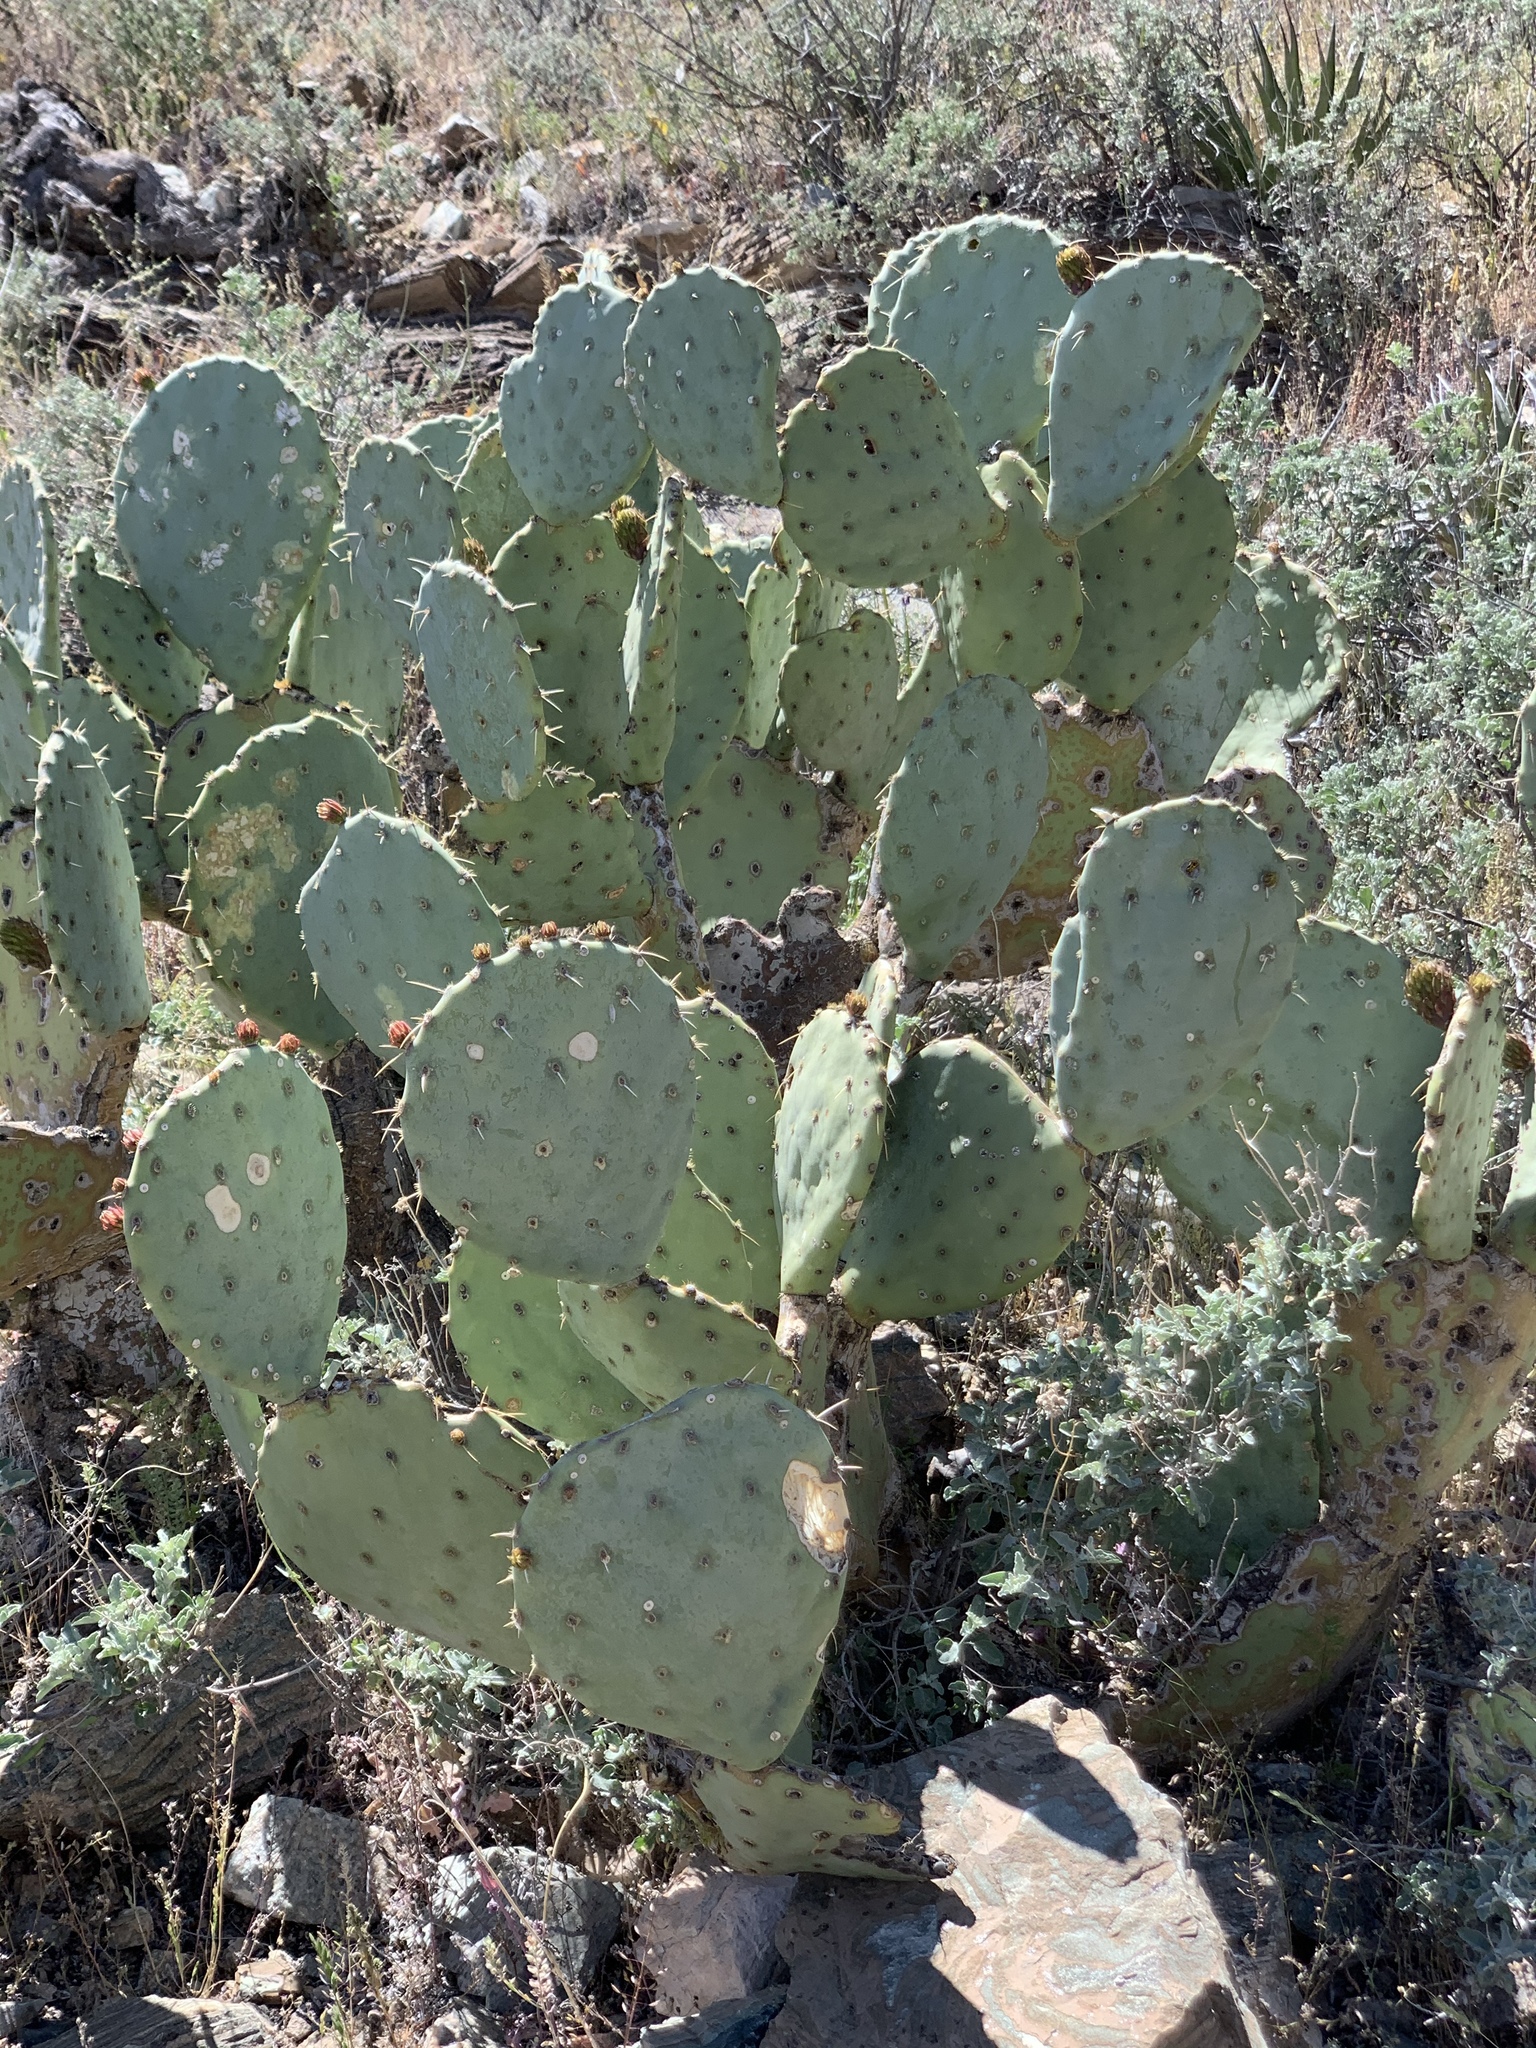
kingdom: Plantae
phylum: Tracheophyta
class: Magnoliopsida
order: Caryophyllales
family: Cactaceae
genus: Opuntia
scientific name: Opuntia orbiculata
